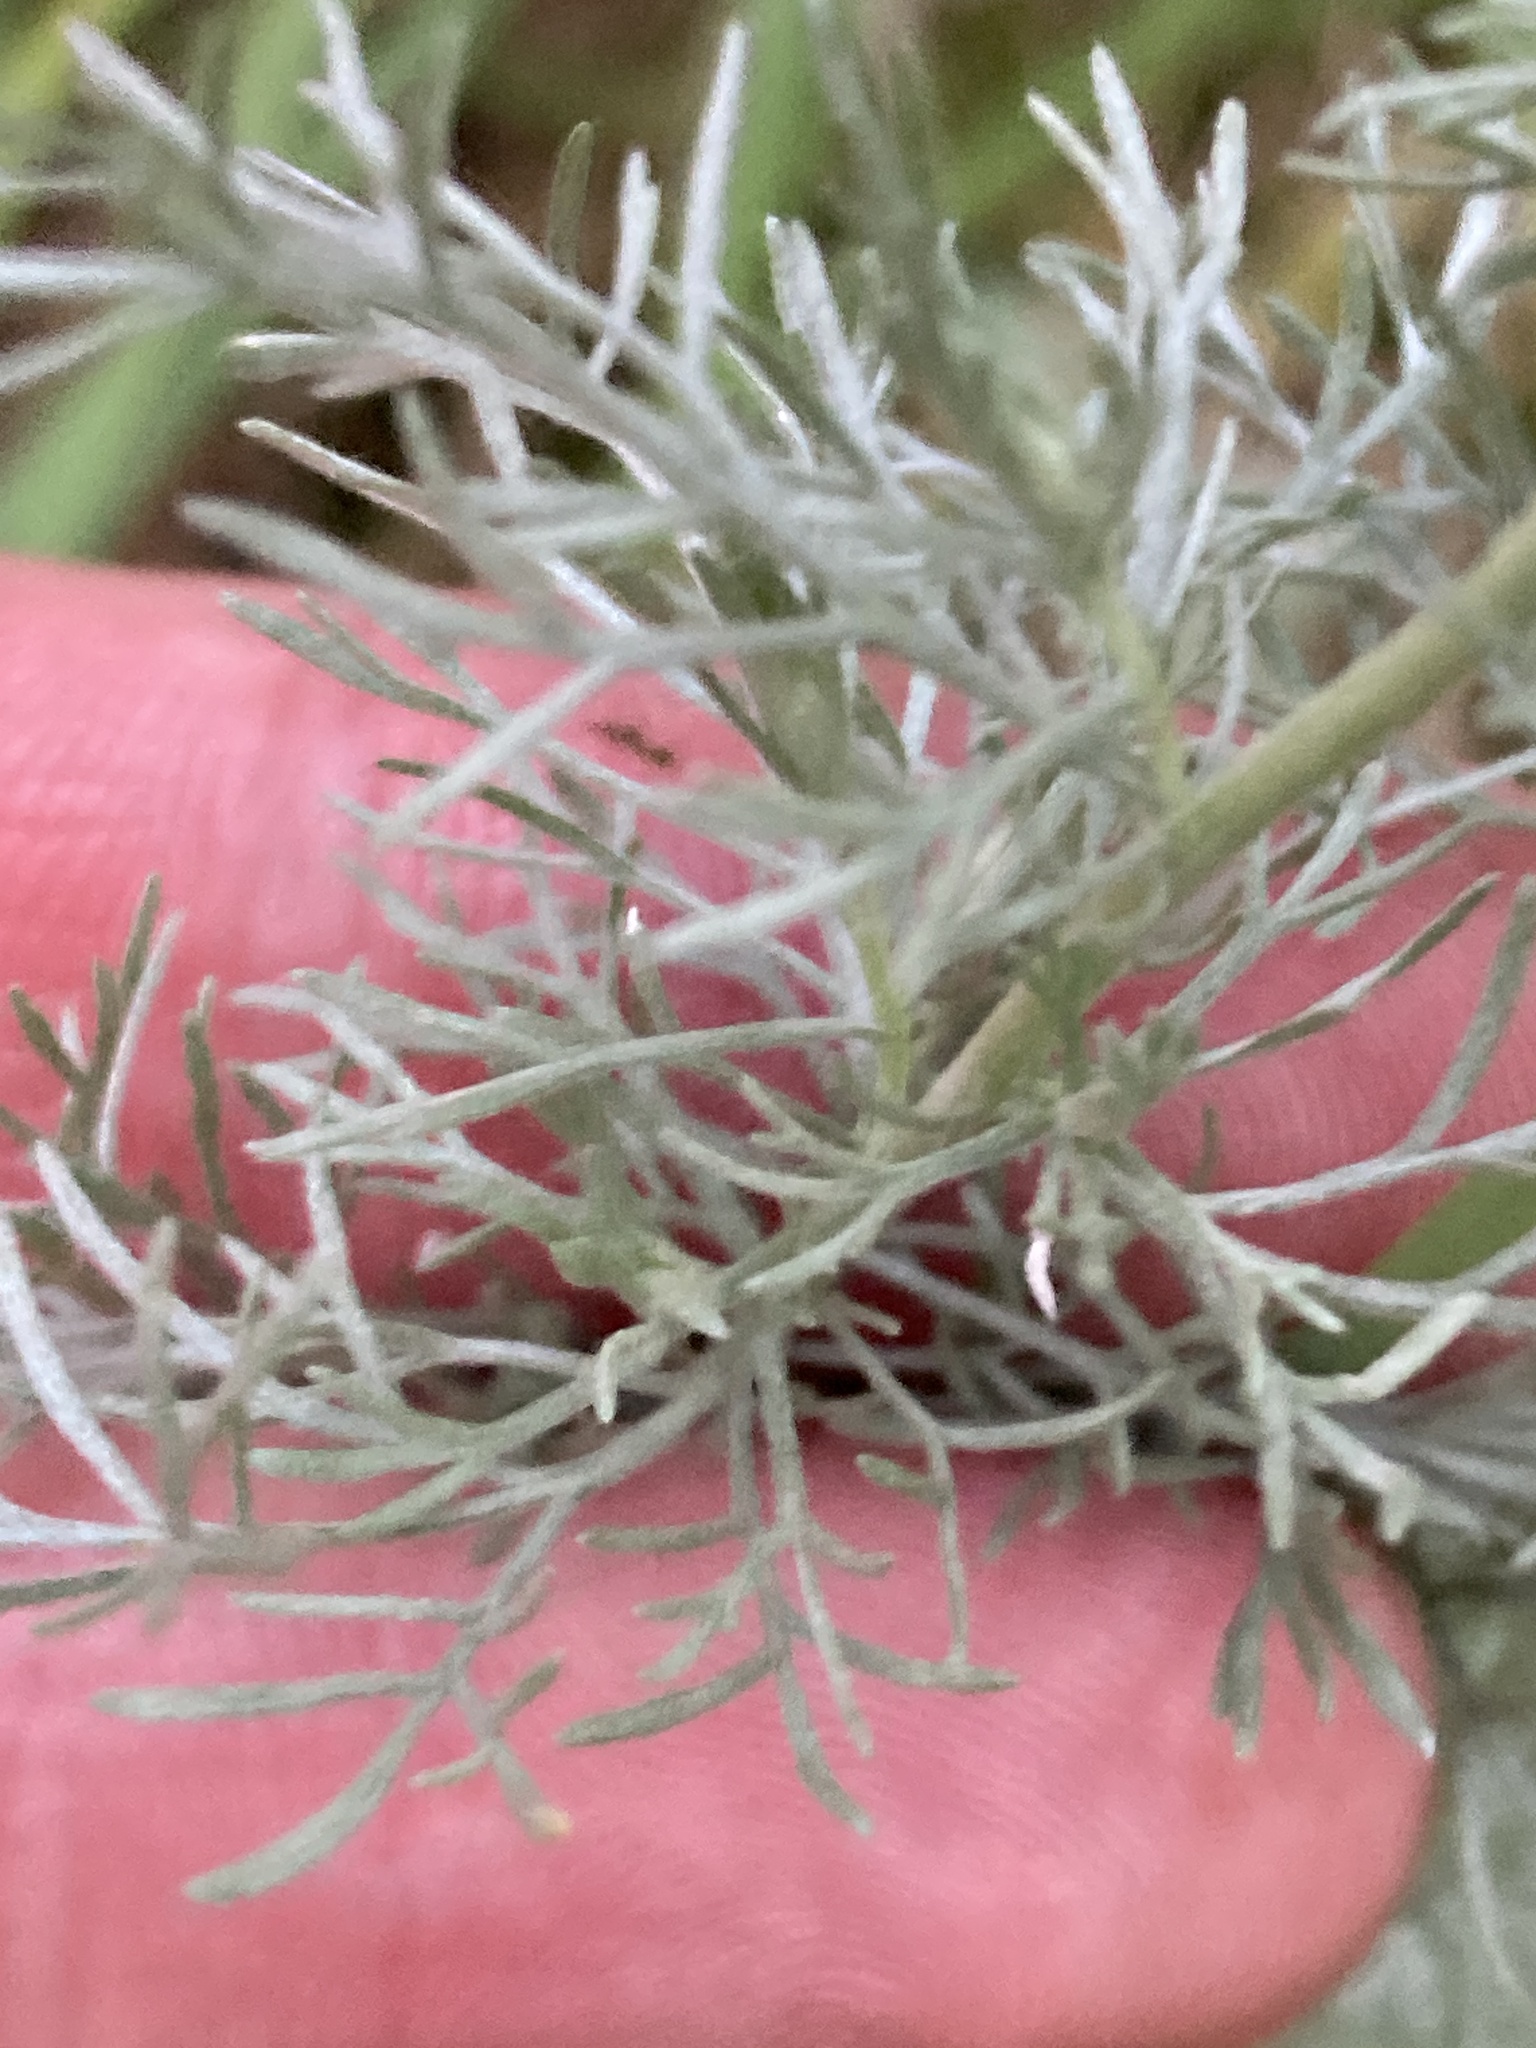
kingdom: Plantae
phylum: Tracheophyta
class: Magnoliopsida
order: Asterales
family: Asteraceae
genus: Artemisia
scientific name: Artemisia austriaca
